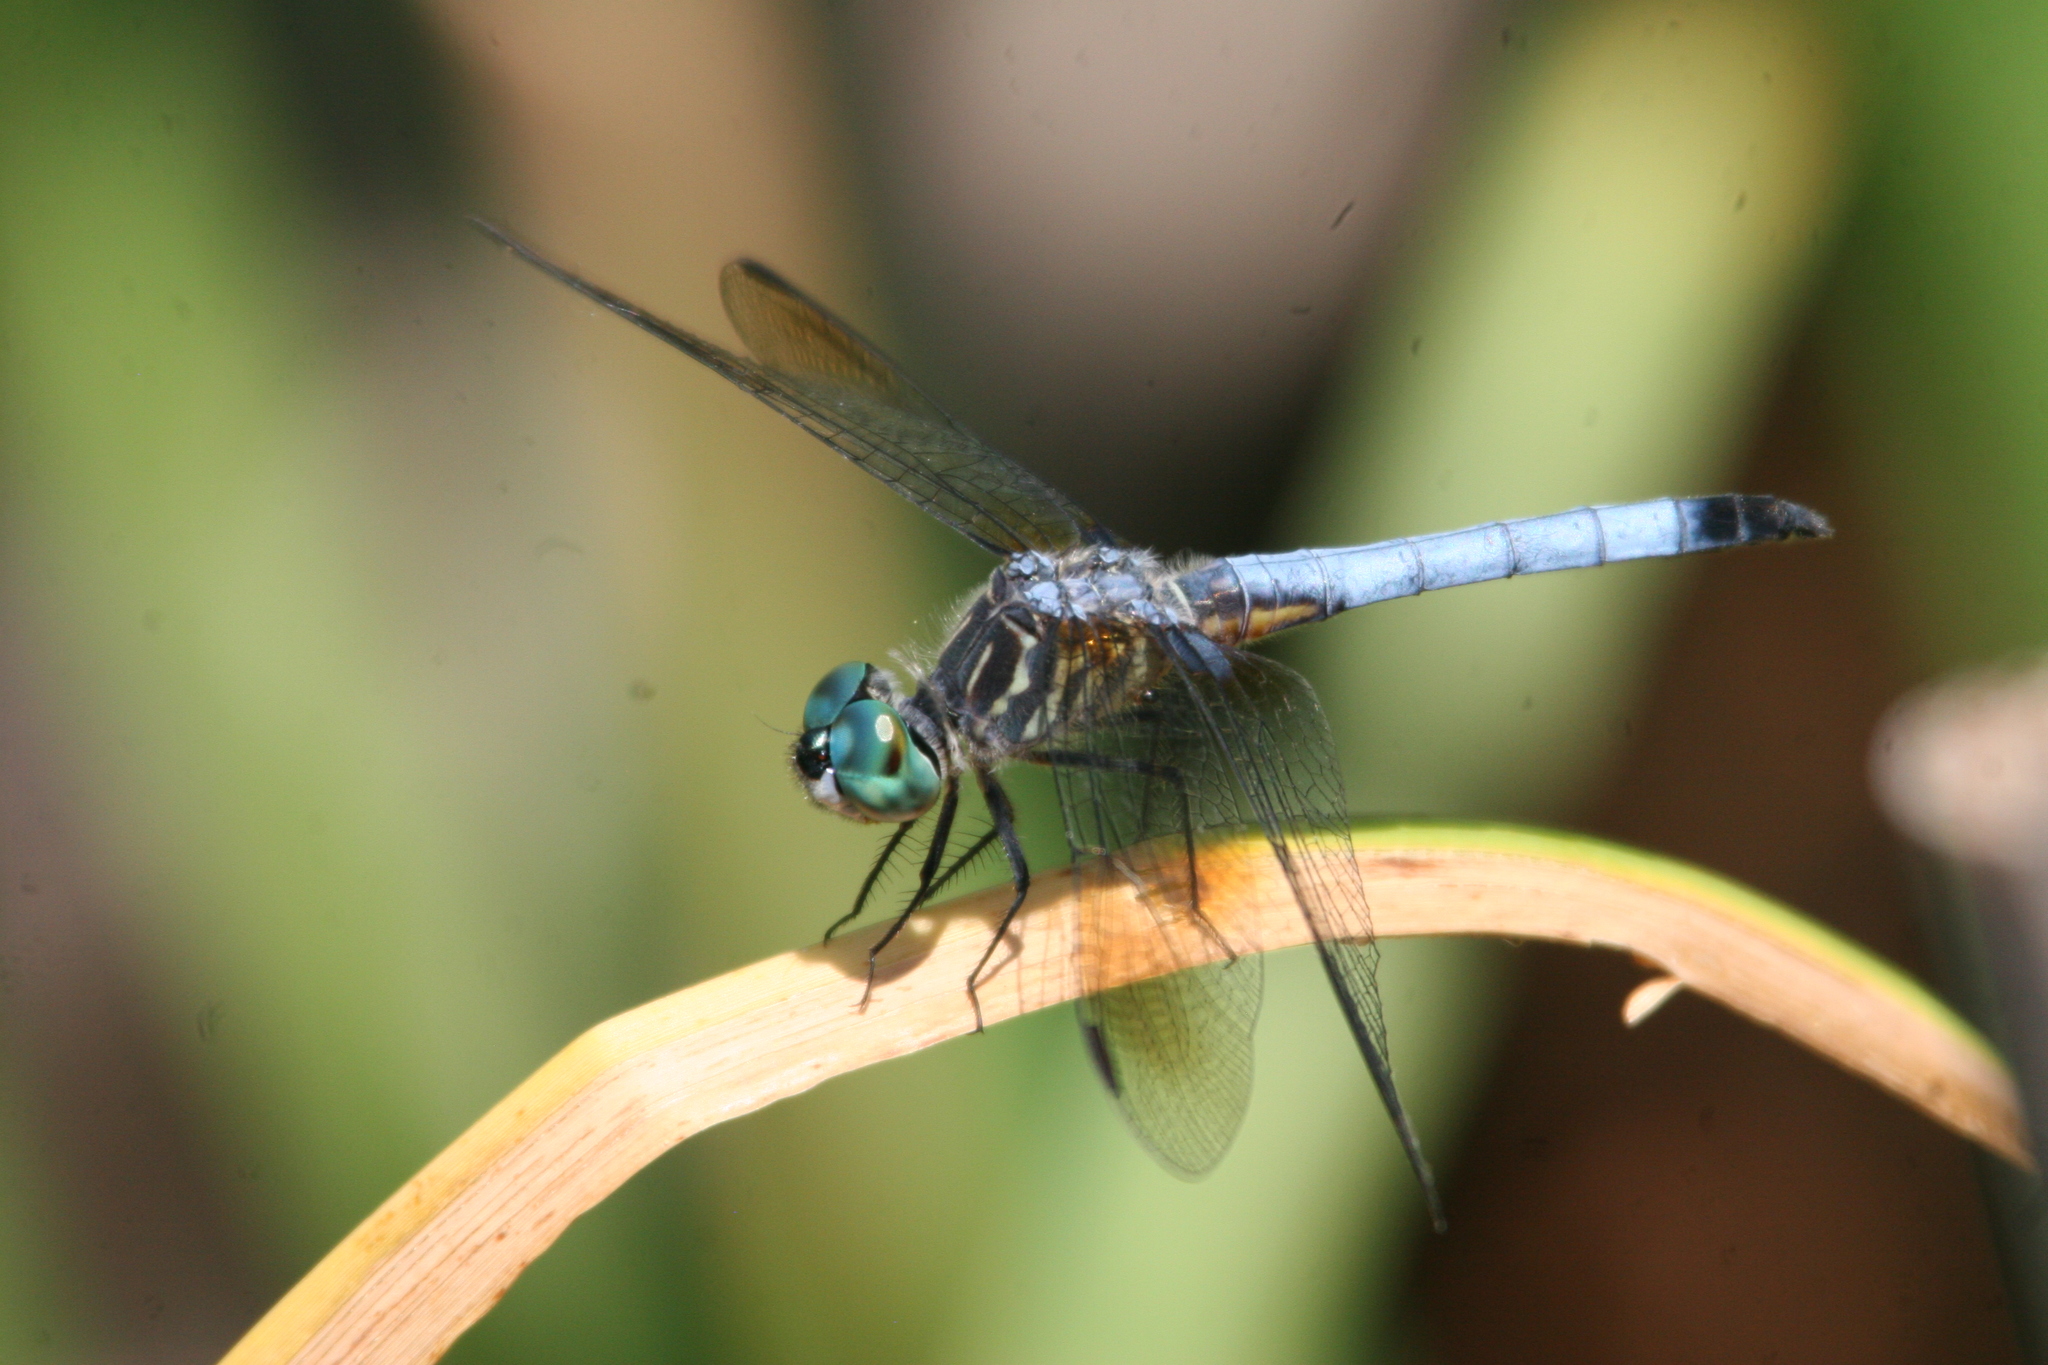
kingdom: Animalia
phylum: Arthropoda
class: Insecta
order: Odonata
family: Libellulidae
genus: Pachydiplax
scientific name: Pachydiplax longipennis
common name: Blue dasher
